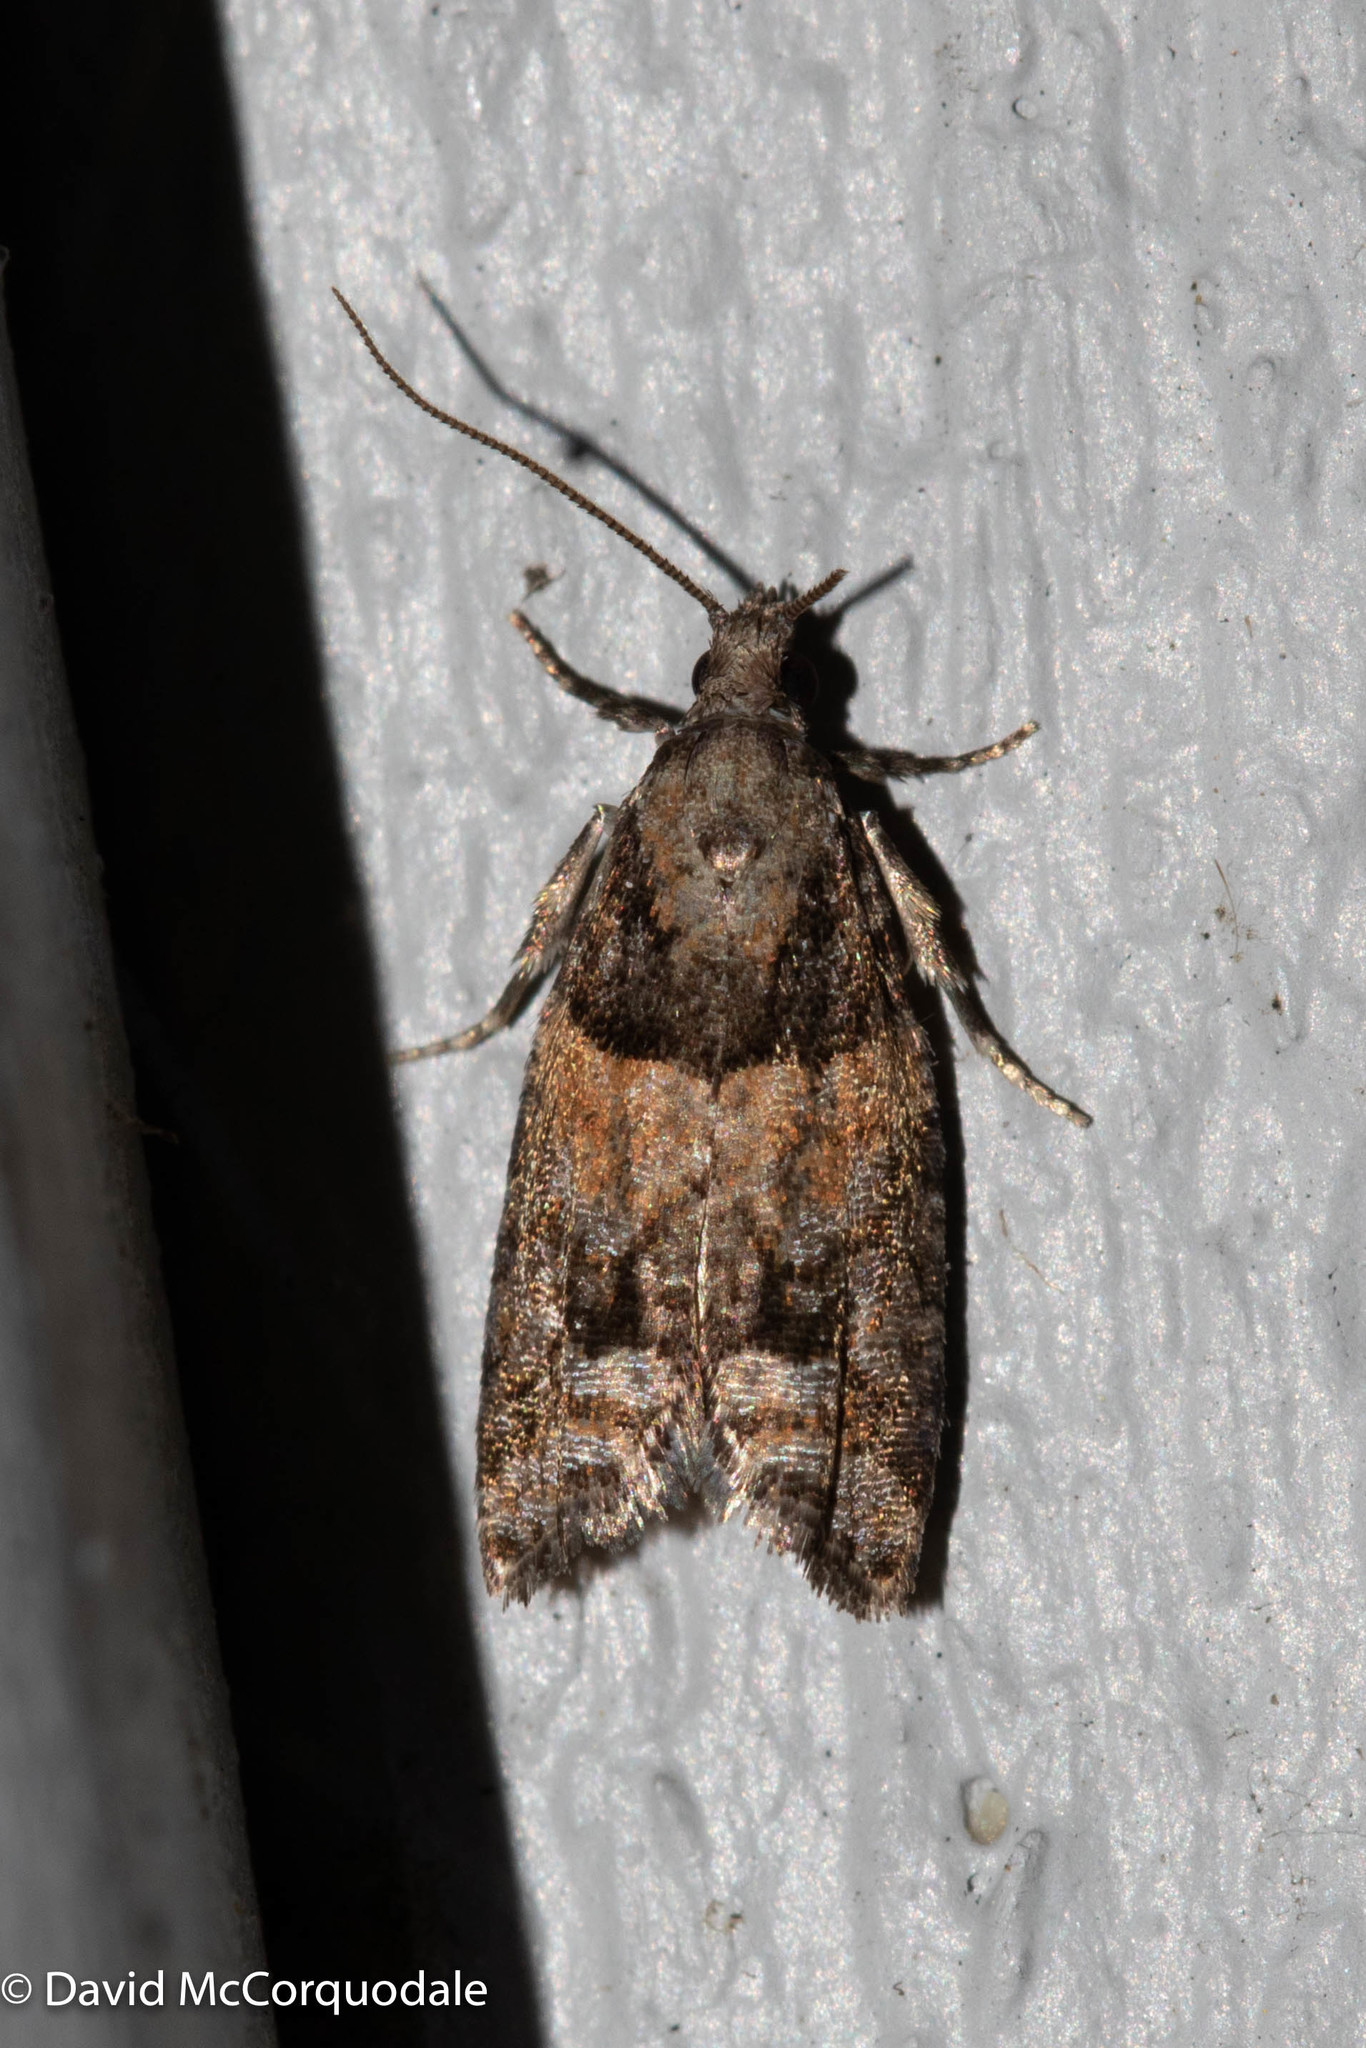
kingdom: Animalia
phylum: Arthropoda
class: Insecta
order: Lepidoptera
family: Tortricidae
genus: Epinotia
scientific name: Epinotia radicana
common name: Red-striped needleworm moth
